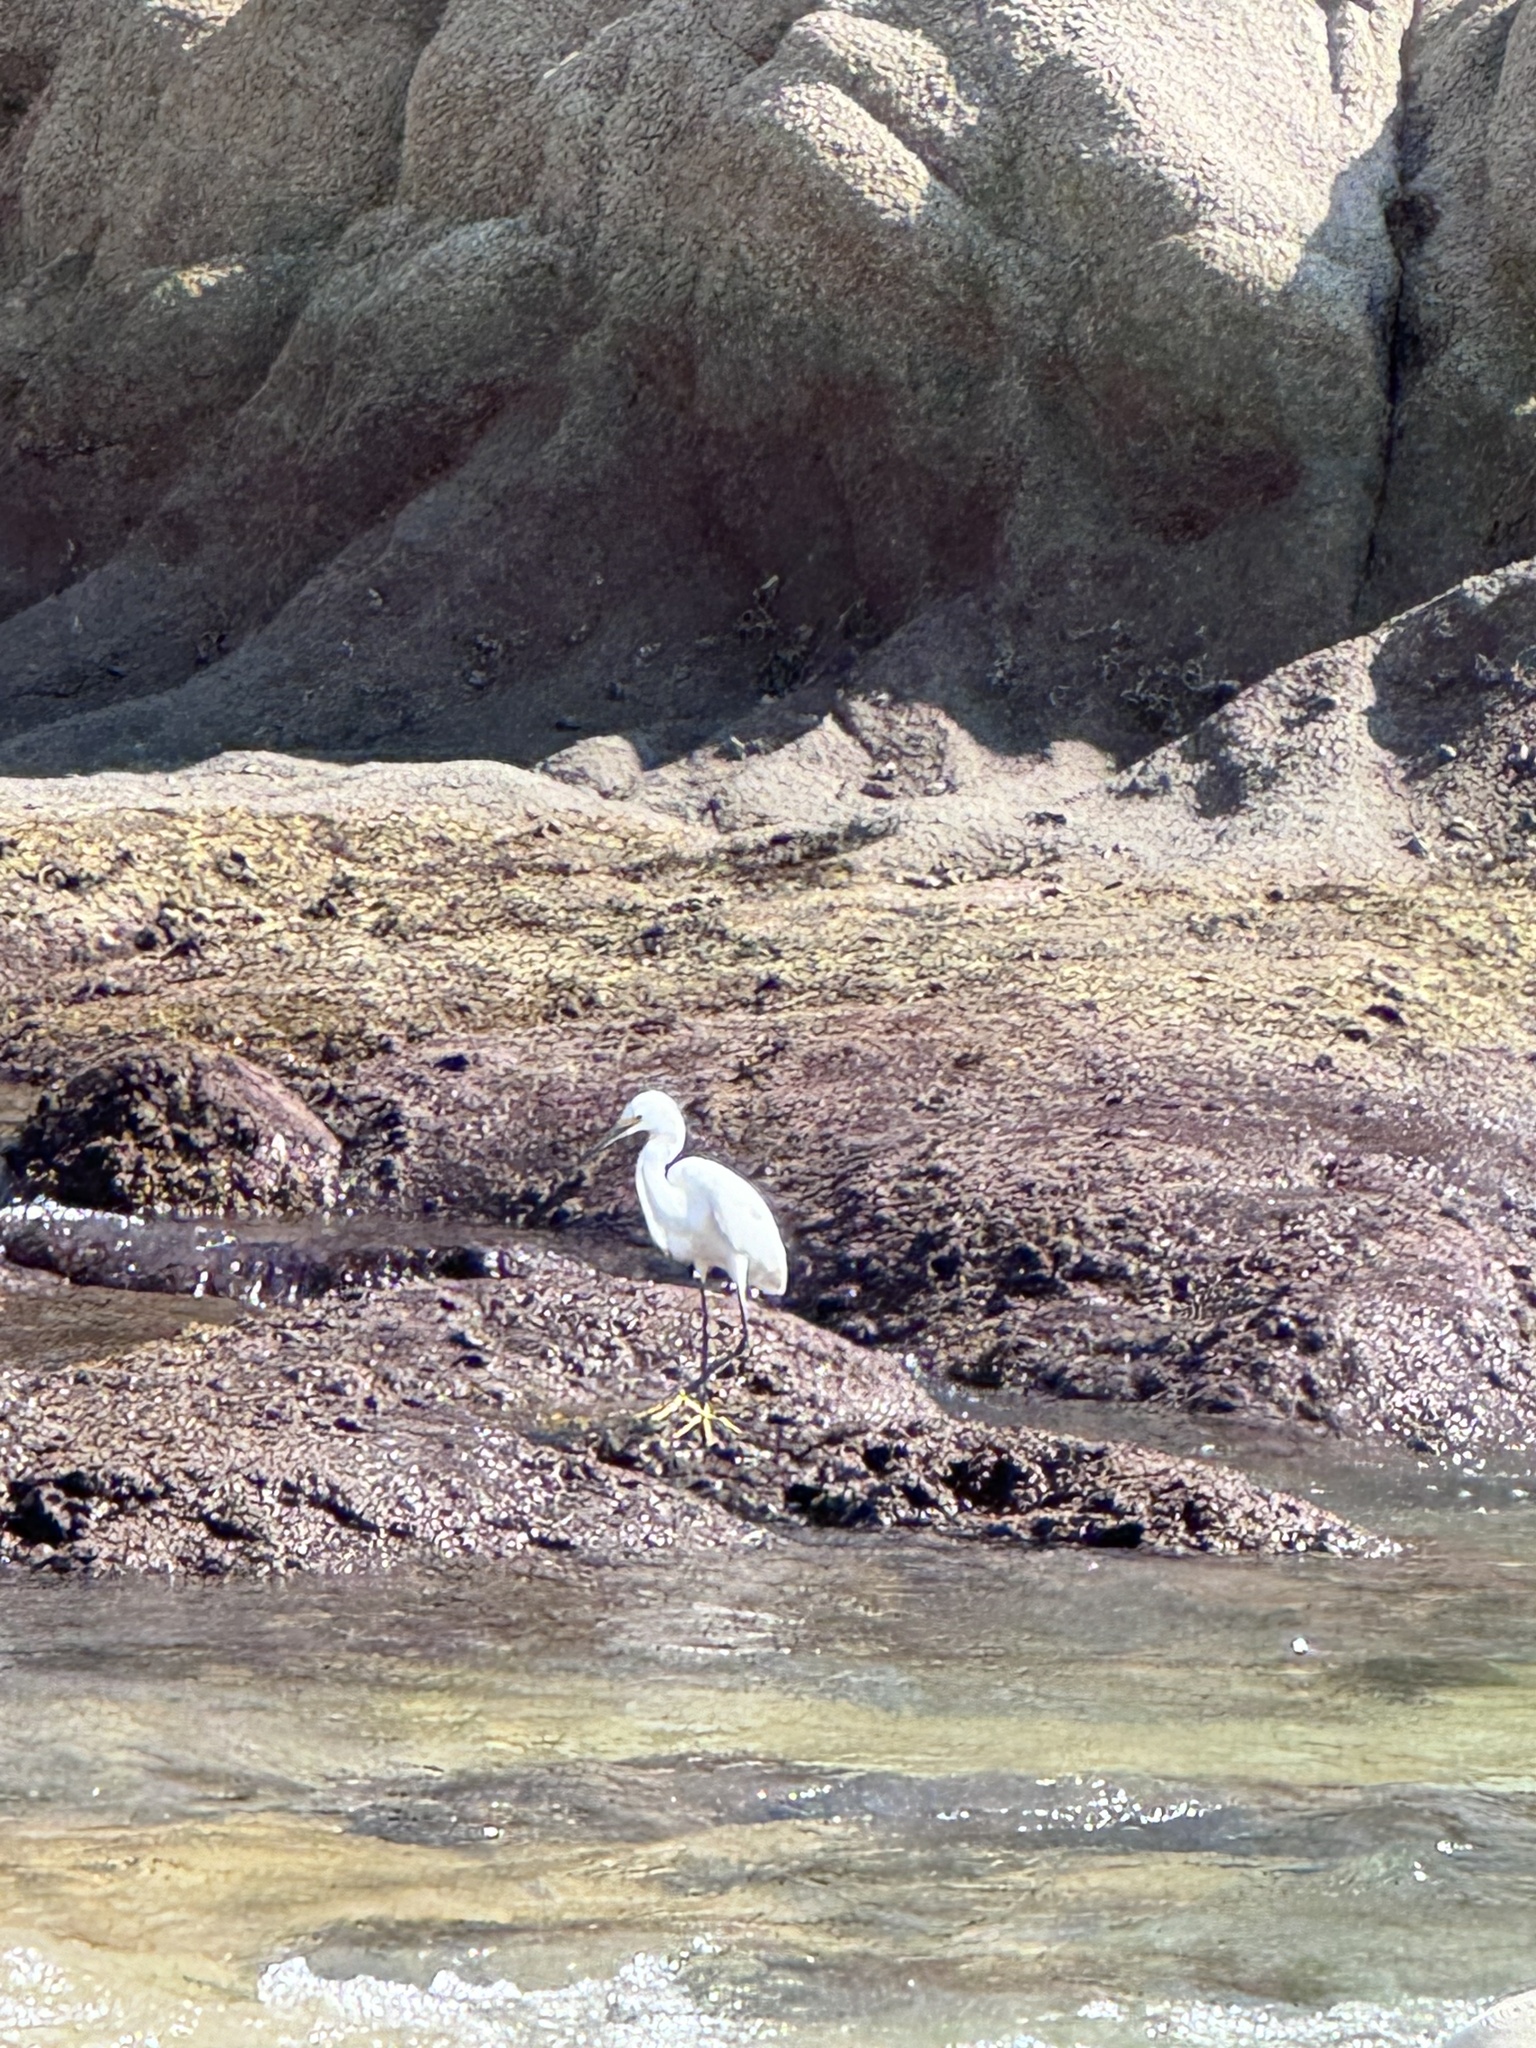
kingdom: Animalia
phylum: Chordata
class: Aves
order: Pelecaniformes
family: Ardeidae
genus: Egretta
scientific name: Egretta thula
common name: Snowy egret
